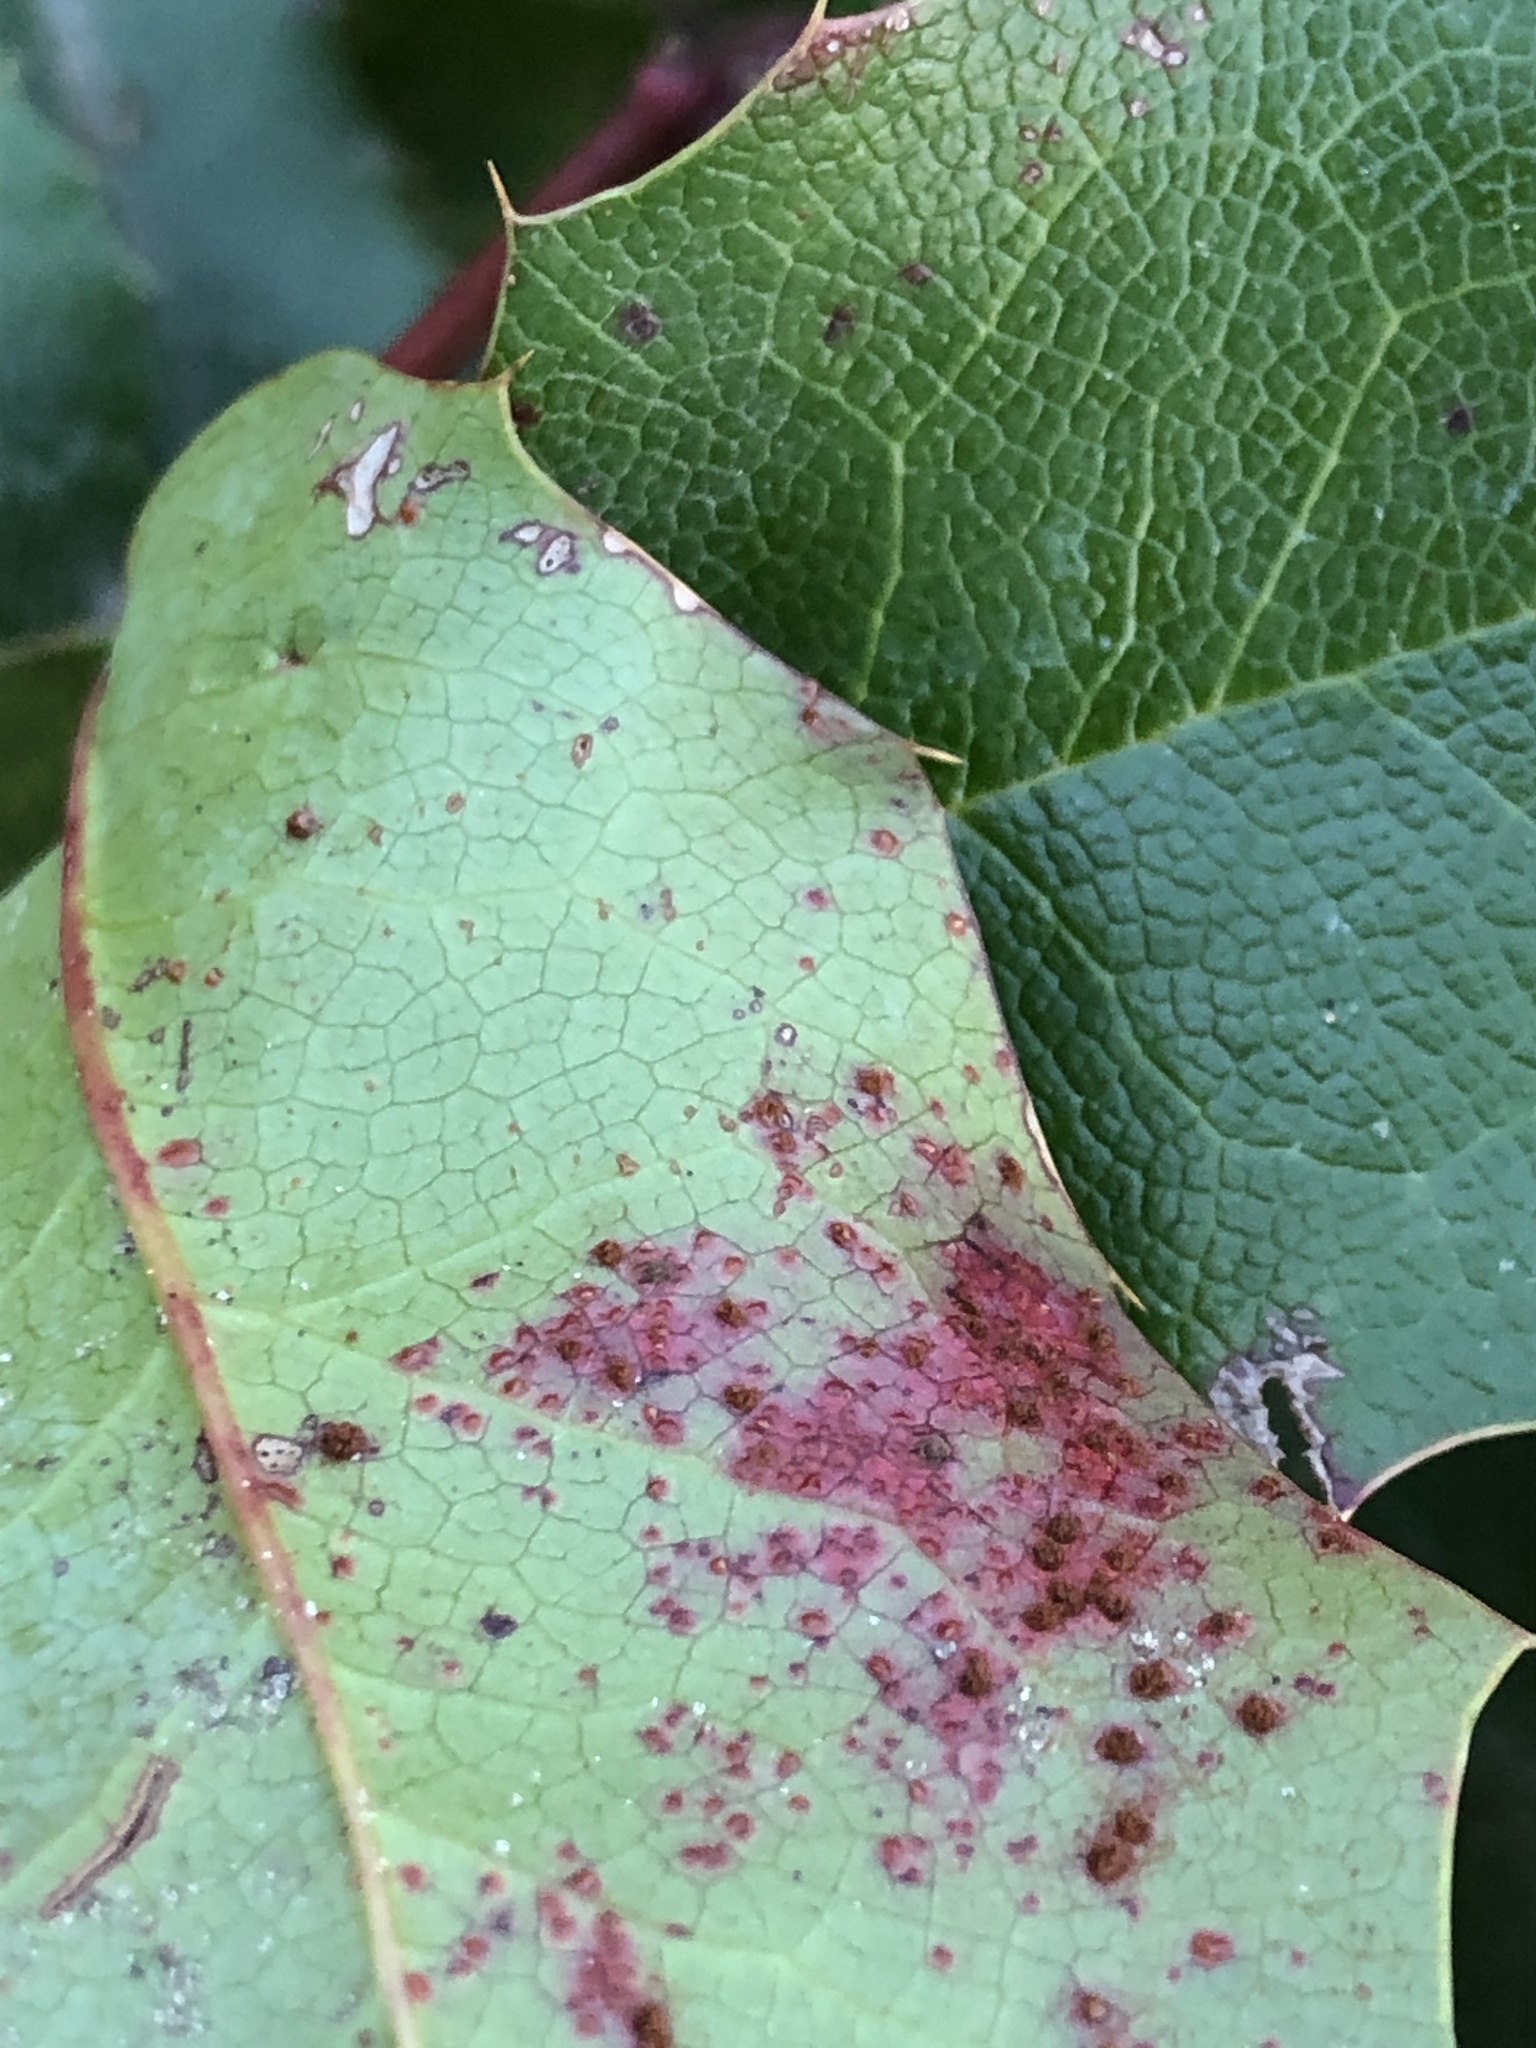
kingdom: Fungi
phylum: Basidiomycota
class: Pucciniomycetes
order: Pucciniales
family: Pucciniaceae
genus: Cumminsiella
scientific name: Cumminsiella mirabilissima
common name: Mahonia rust
